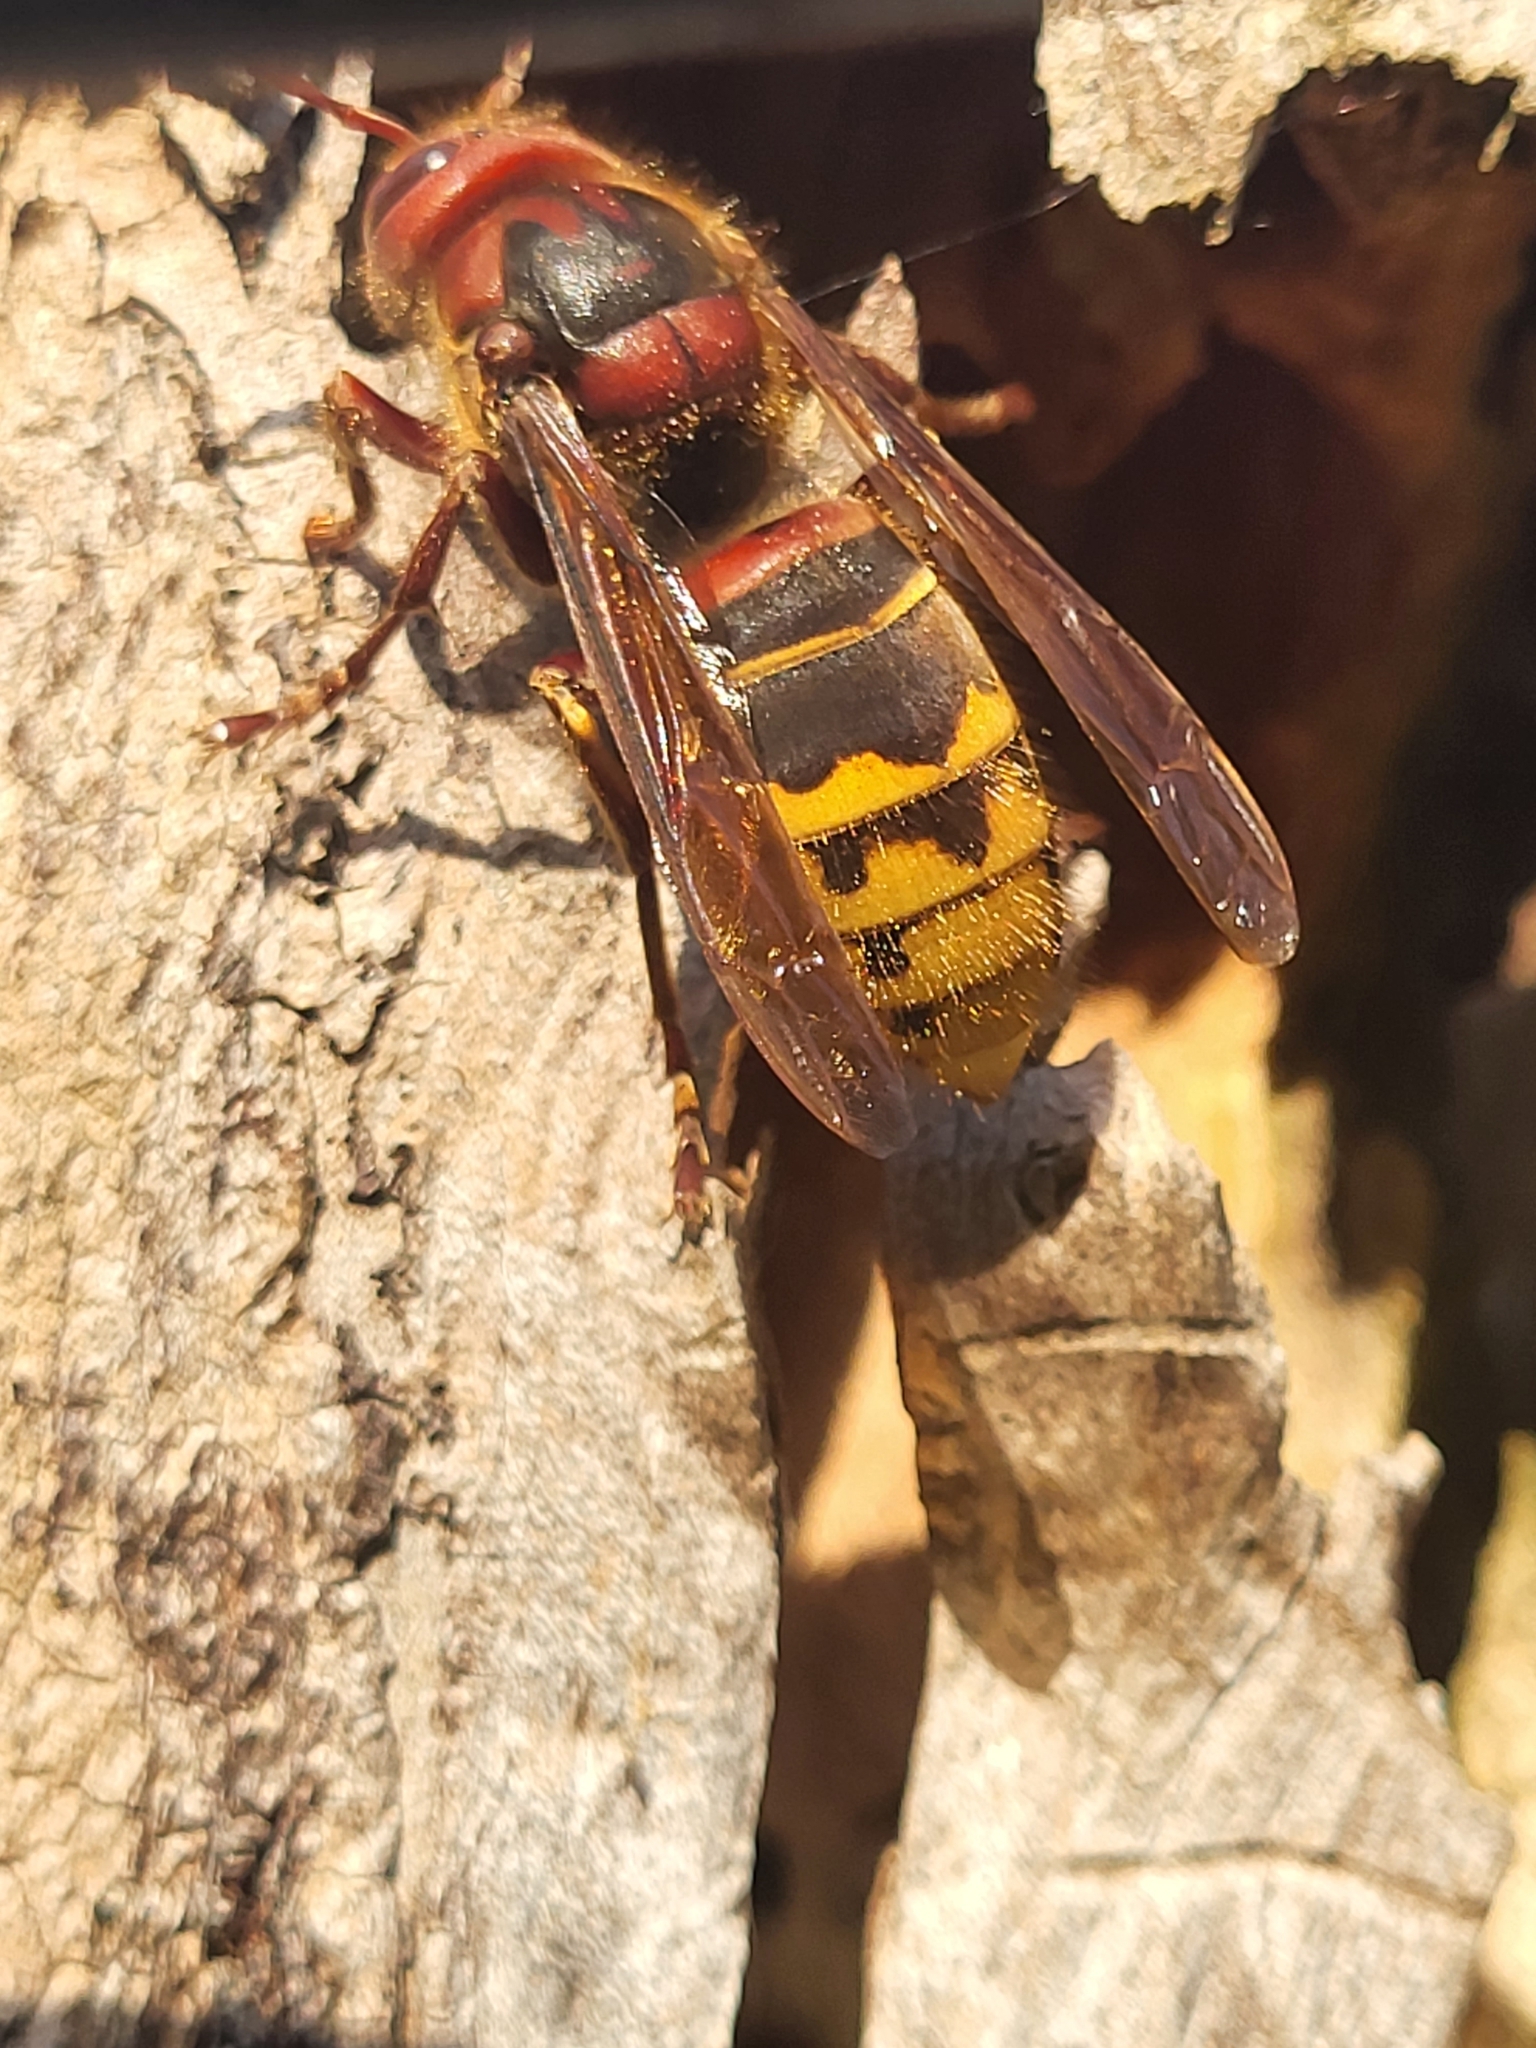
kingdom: Animalia
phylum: Arthropoda
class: Insecta
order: Hymenoptera
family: Vespidae
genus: Vespa
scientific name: Vespa crabro
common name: Hornet
